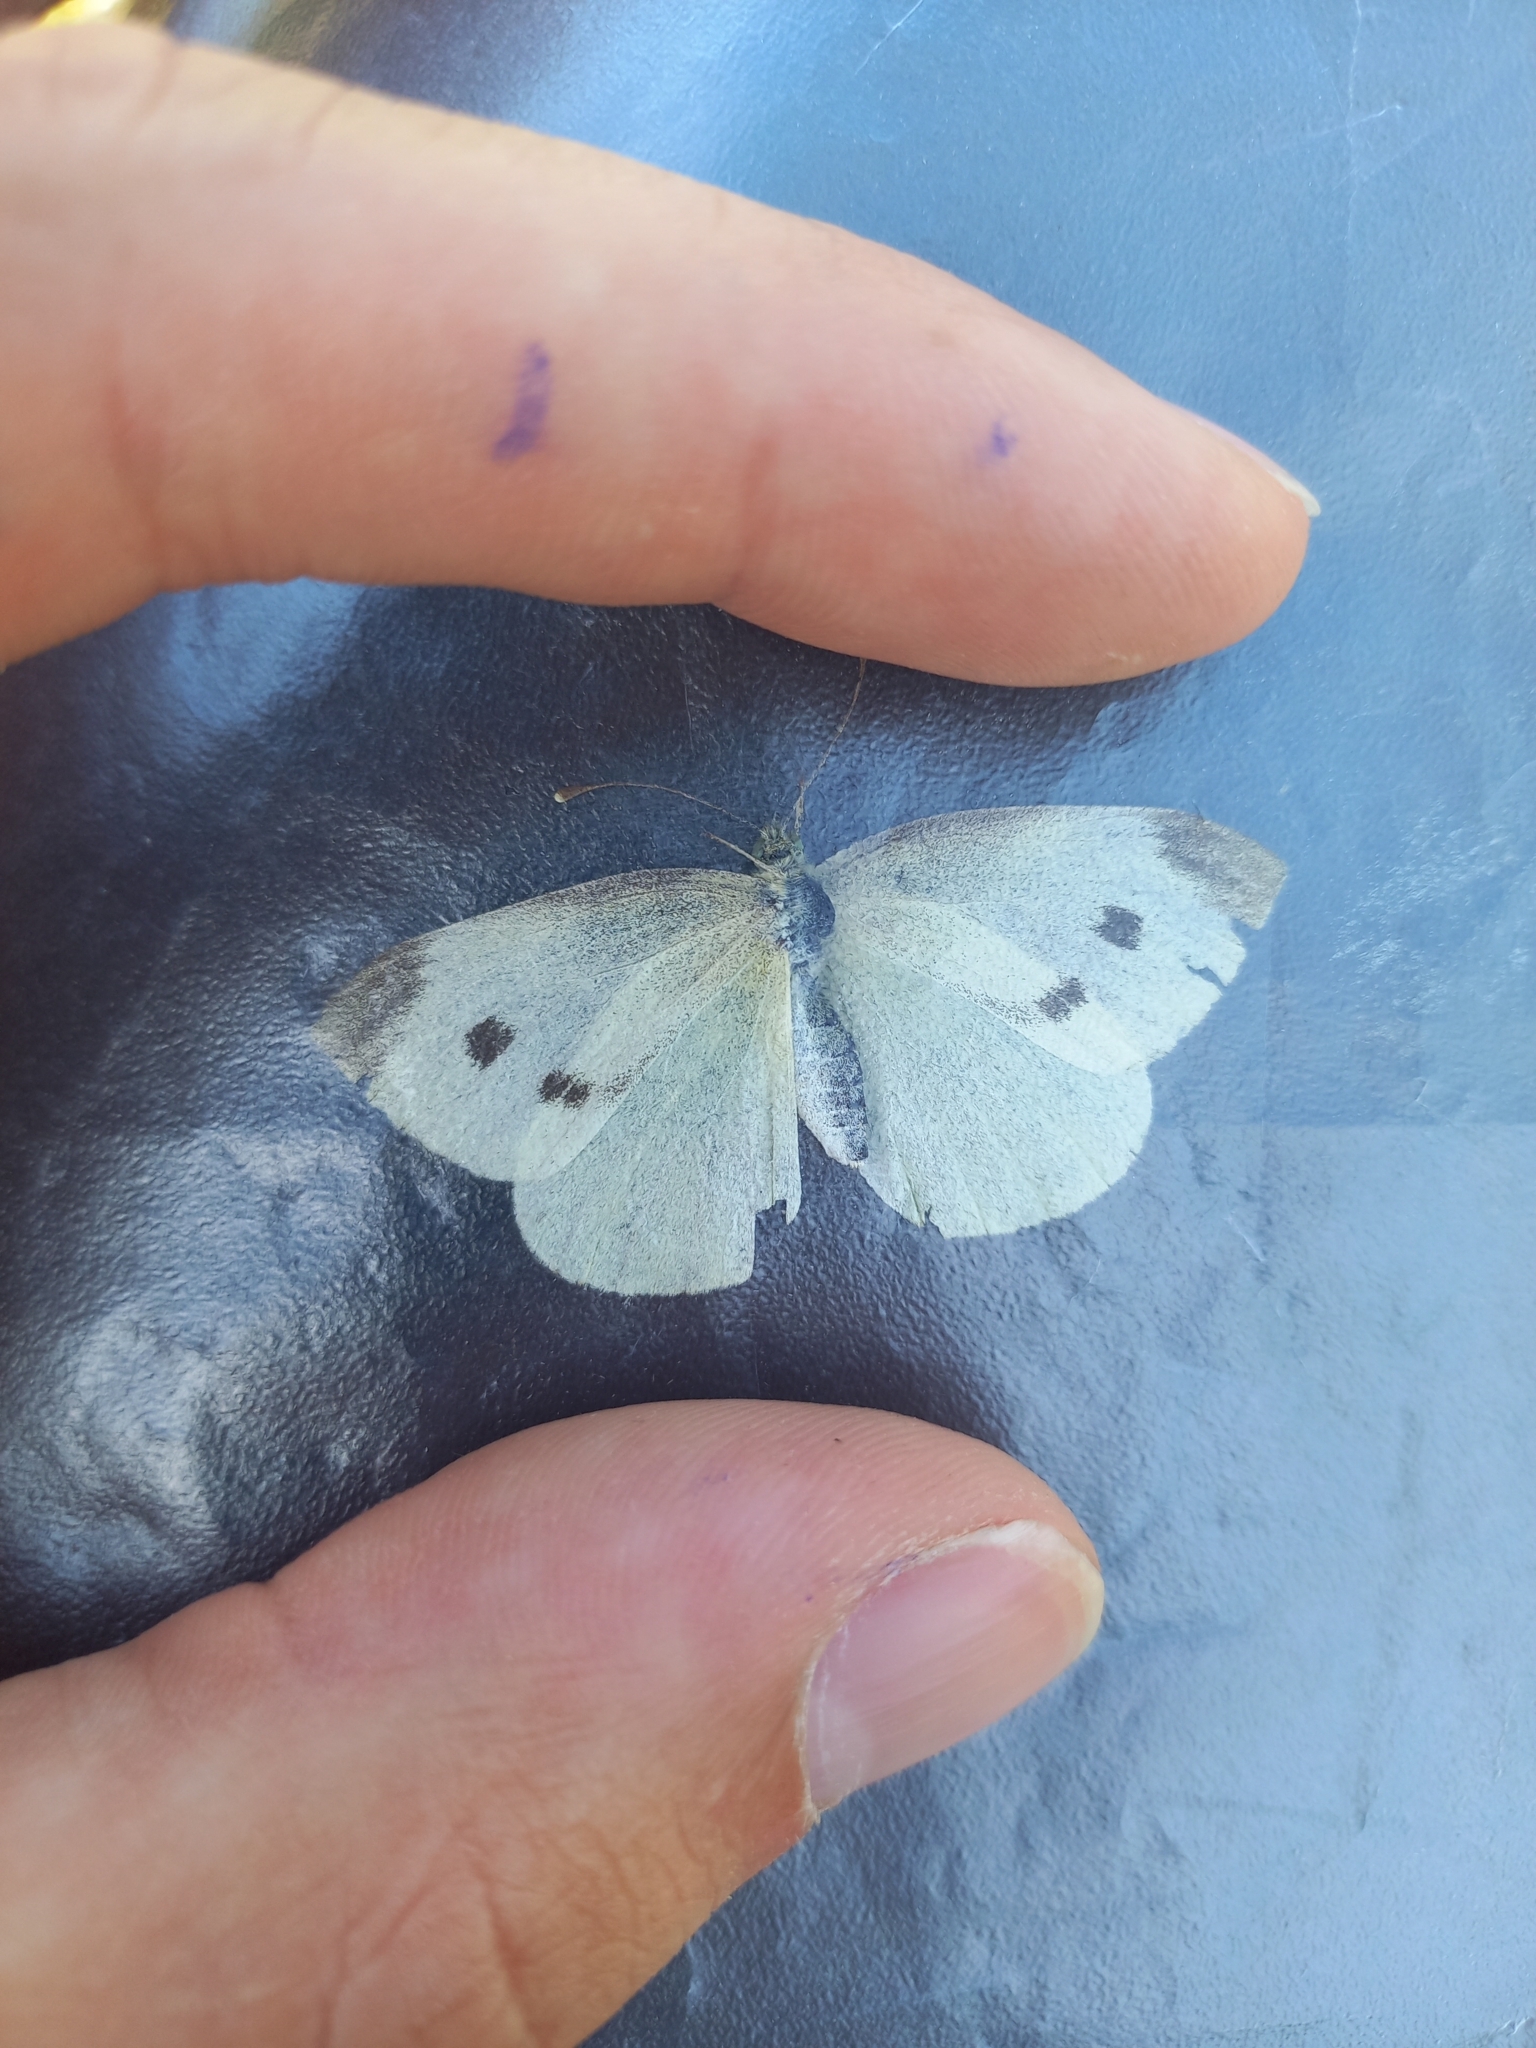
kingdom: Animalia
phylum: Arthropoda
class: Insecta
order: Lepidoptera
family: Pieridae
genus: Pieris
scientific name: Pieris rapae
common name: Small white
